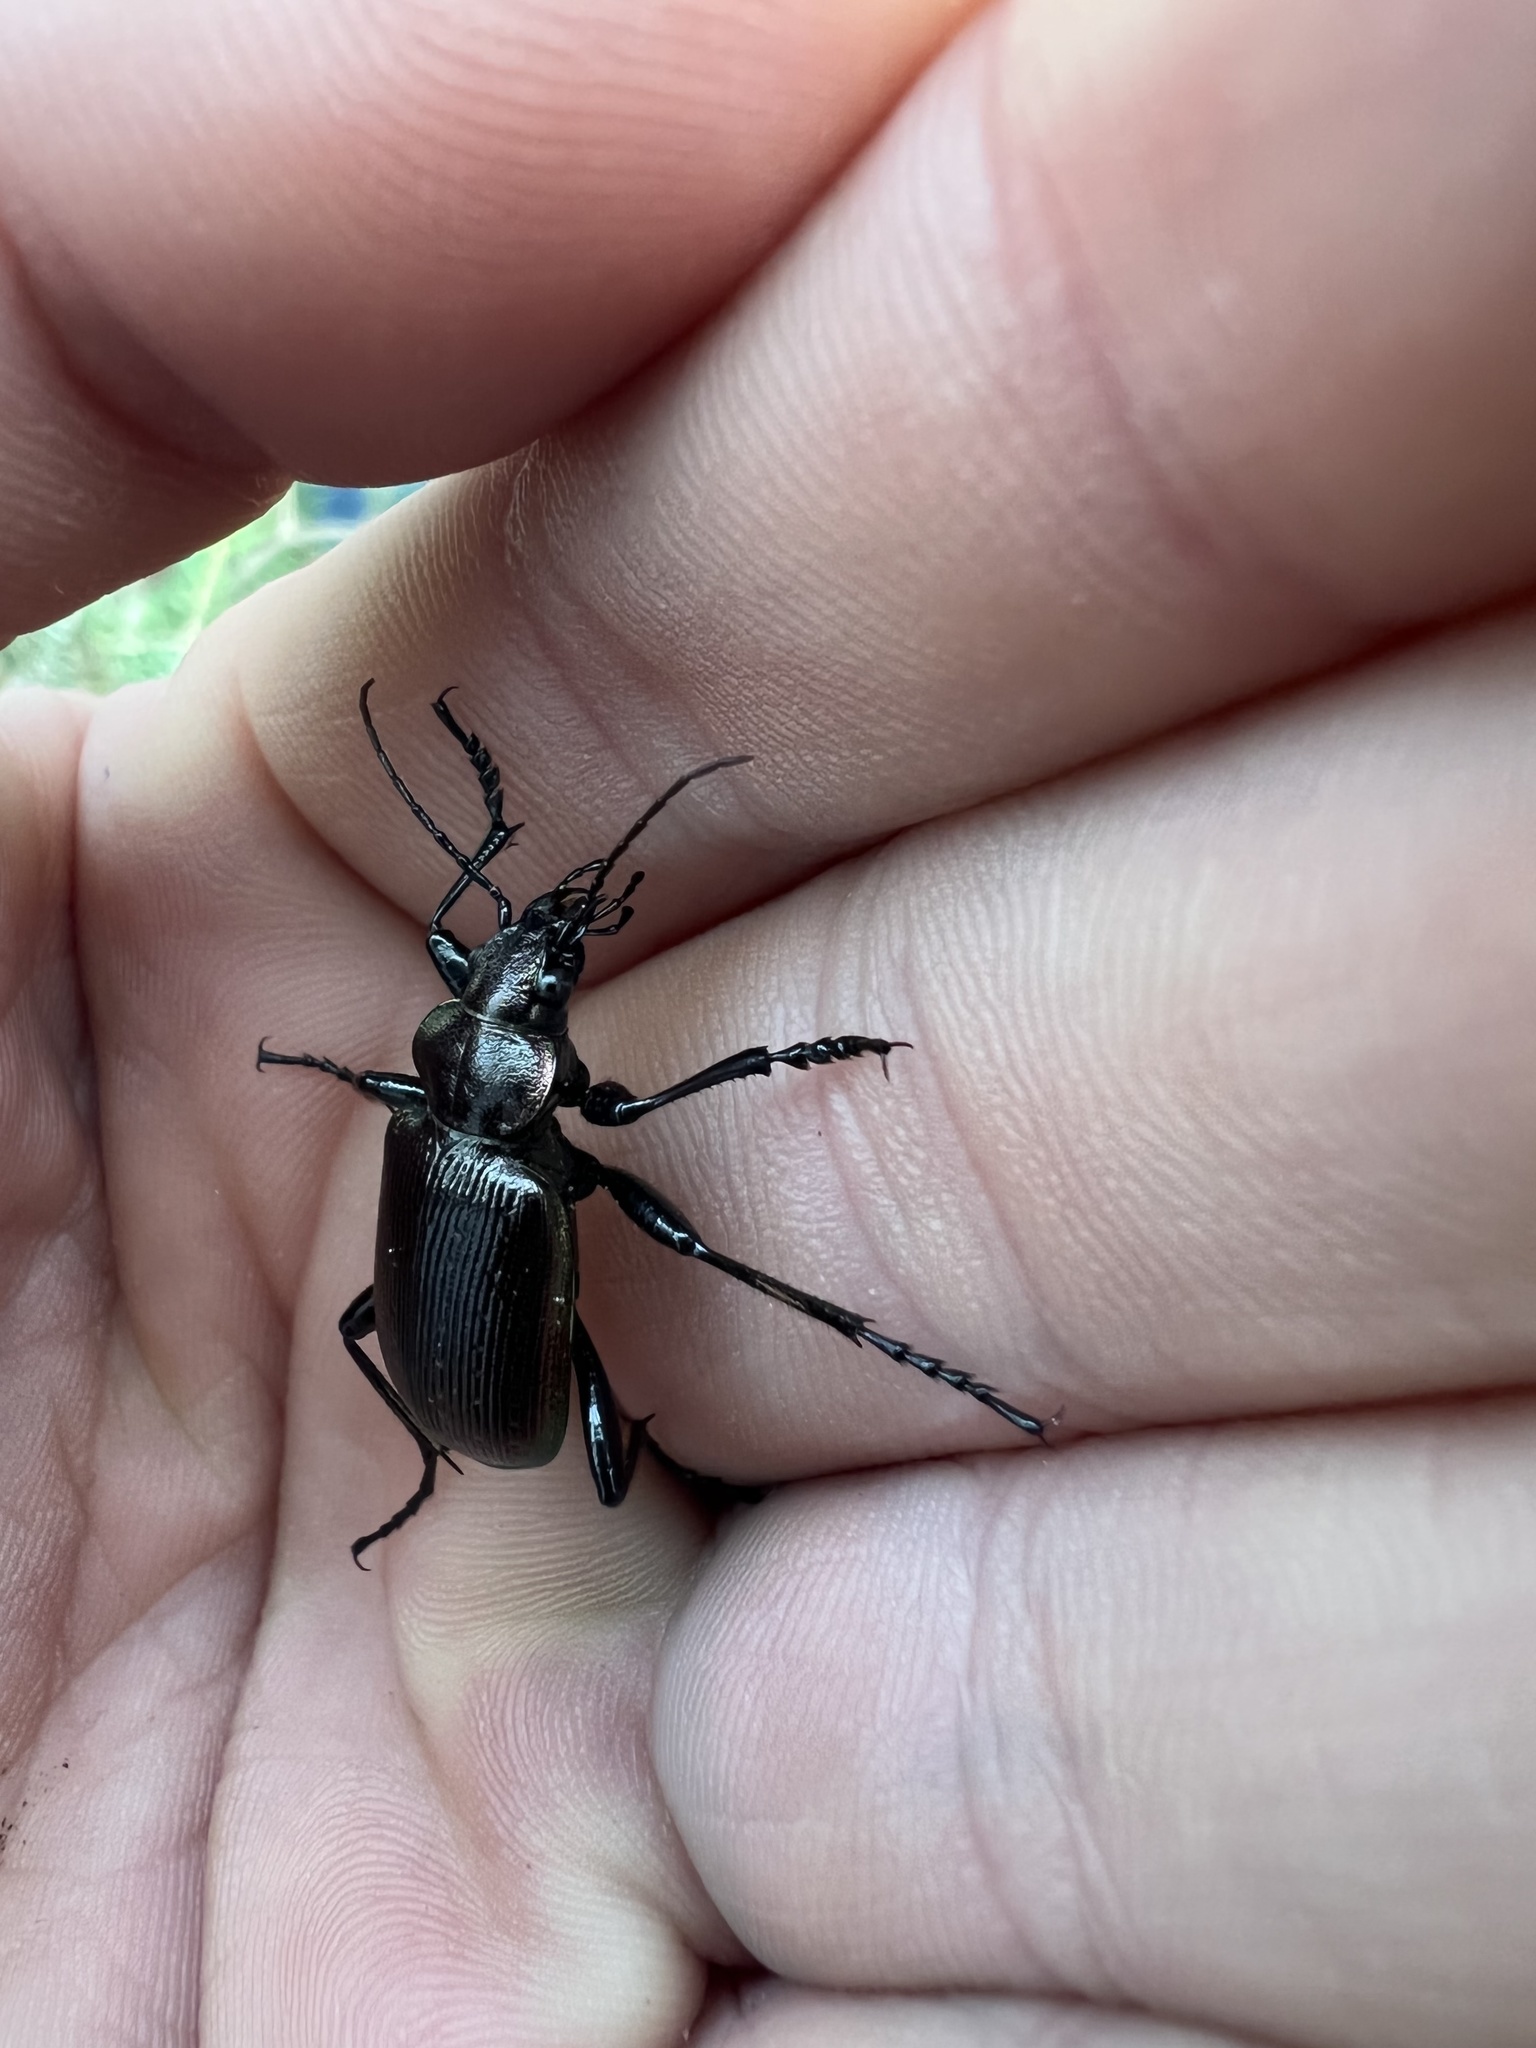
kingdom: Animalia
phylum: Arthropoda
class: Insecta
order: Coleoptera
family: Carabidae
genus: Calosoma
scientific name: Calosoma inquisitor
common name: Caterpillar-hunter
